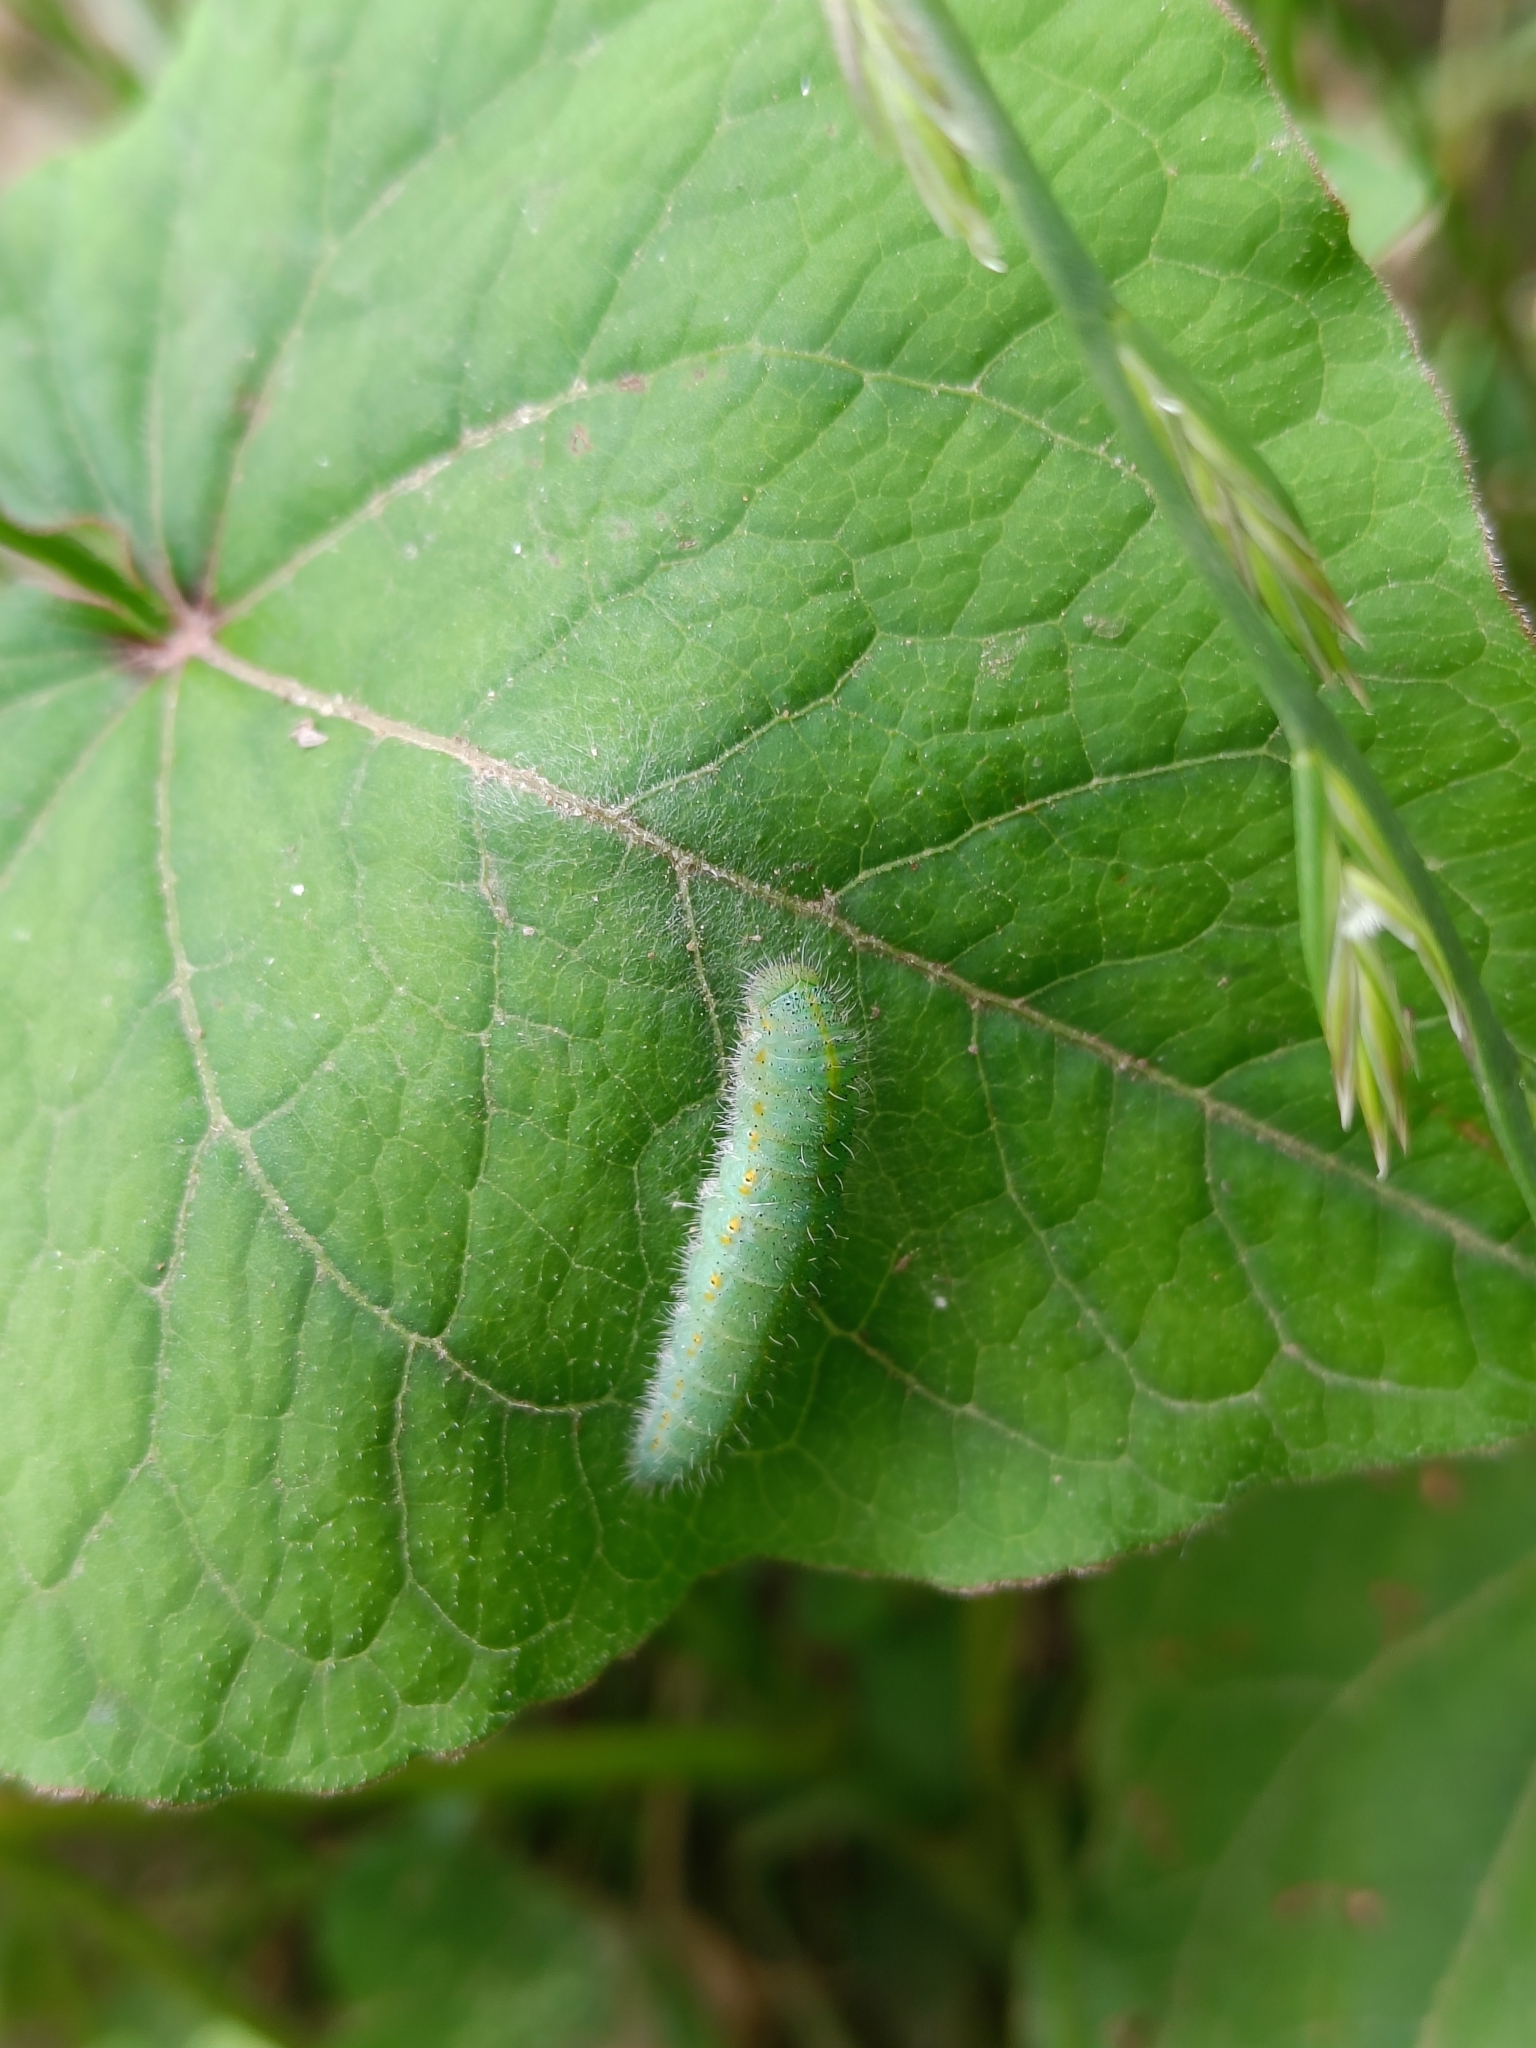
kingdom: Animalia
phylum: Arthropoda
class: Insecta
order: Lepidoptera
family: Pieridae
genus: Pieris
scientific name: Pieris canidia
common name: Indian cabbage white
